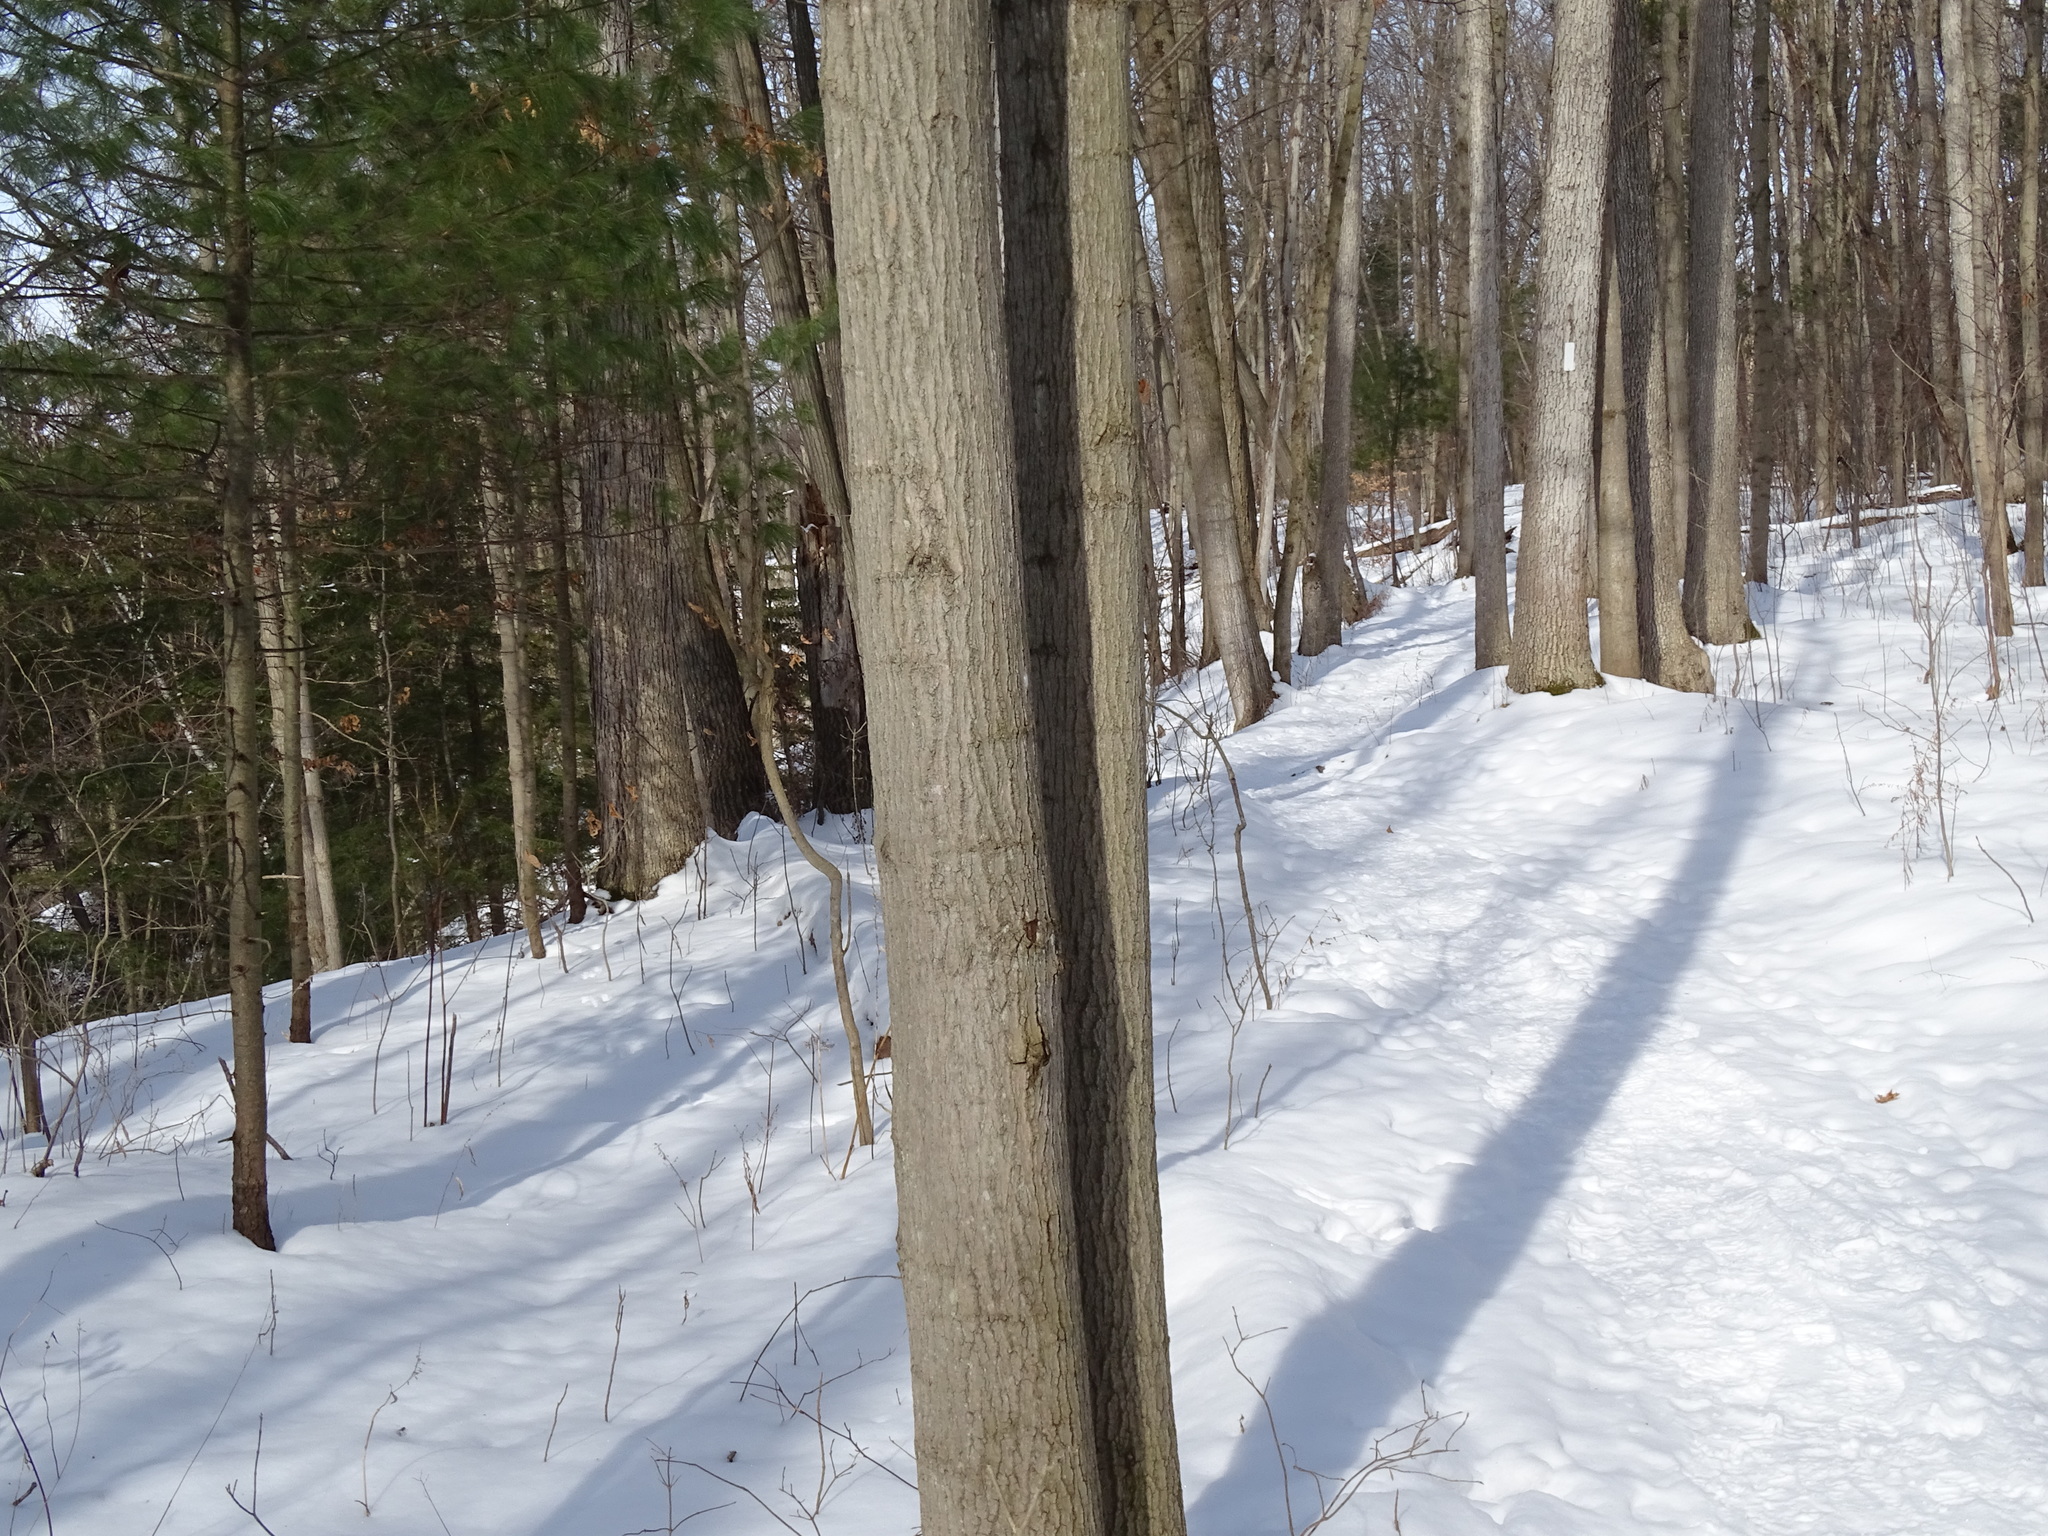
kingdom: Plantae
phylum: Tracheophyta
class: Magnoliopsida
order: Sapindales
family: Sapindaceae
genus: Acer
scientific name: Acer saccharum
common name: Sugar maple
